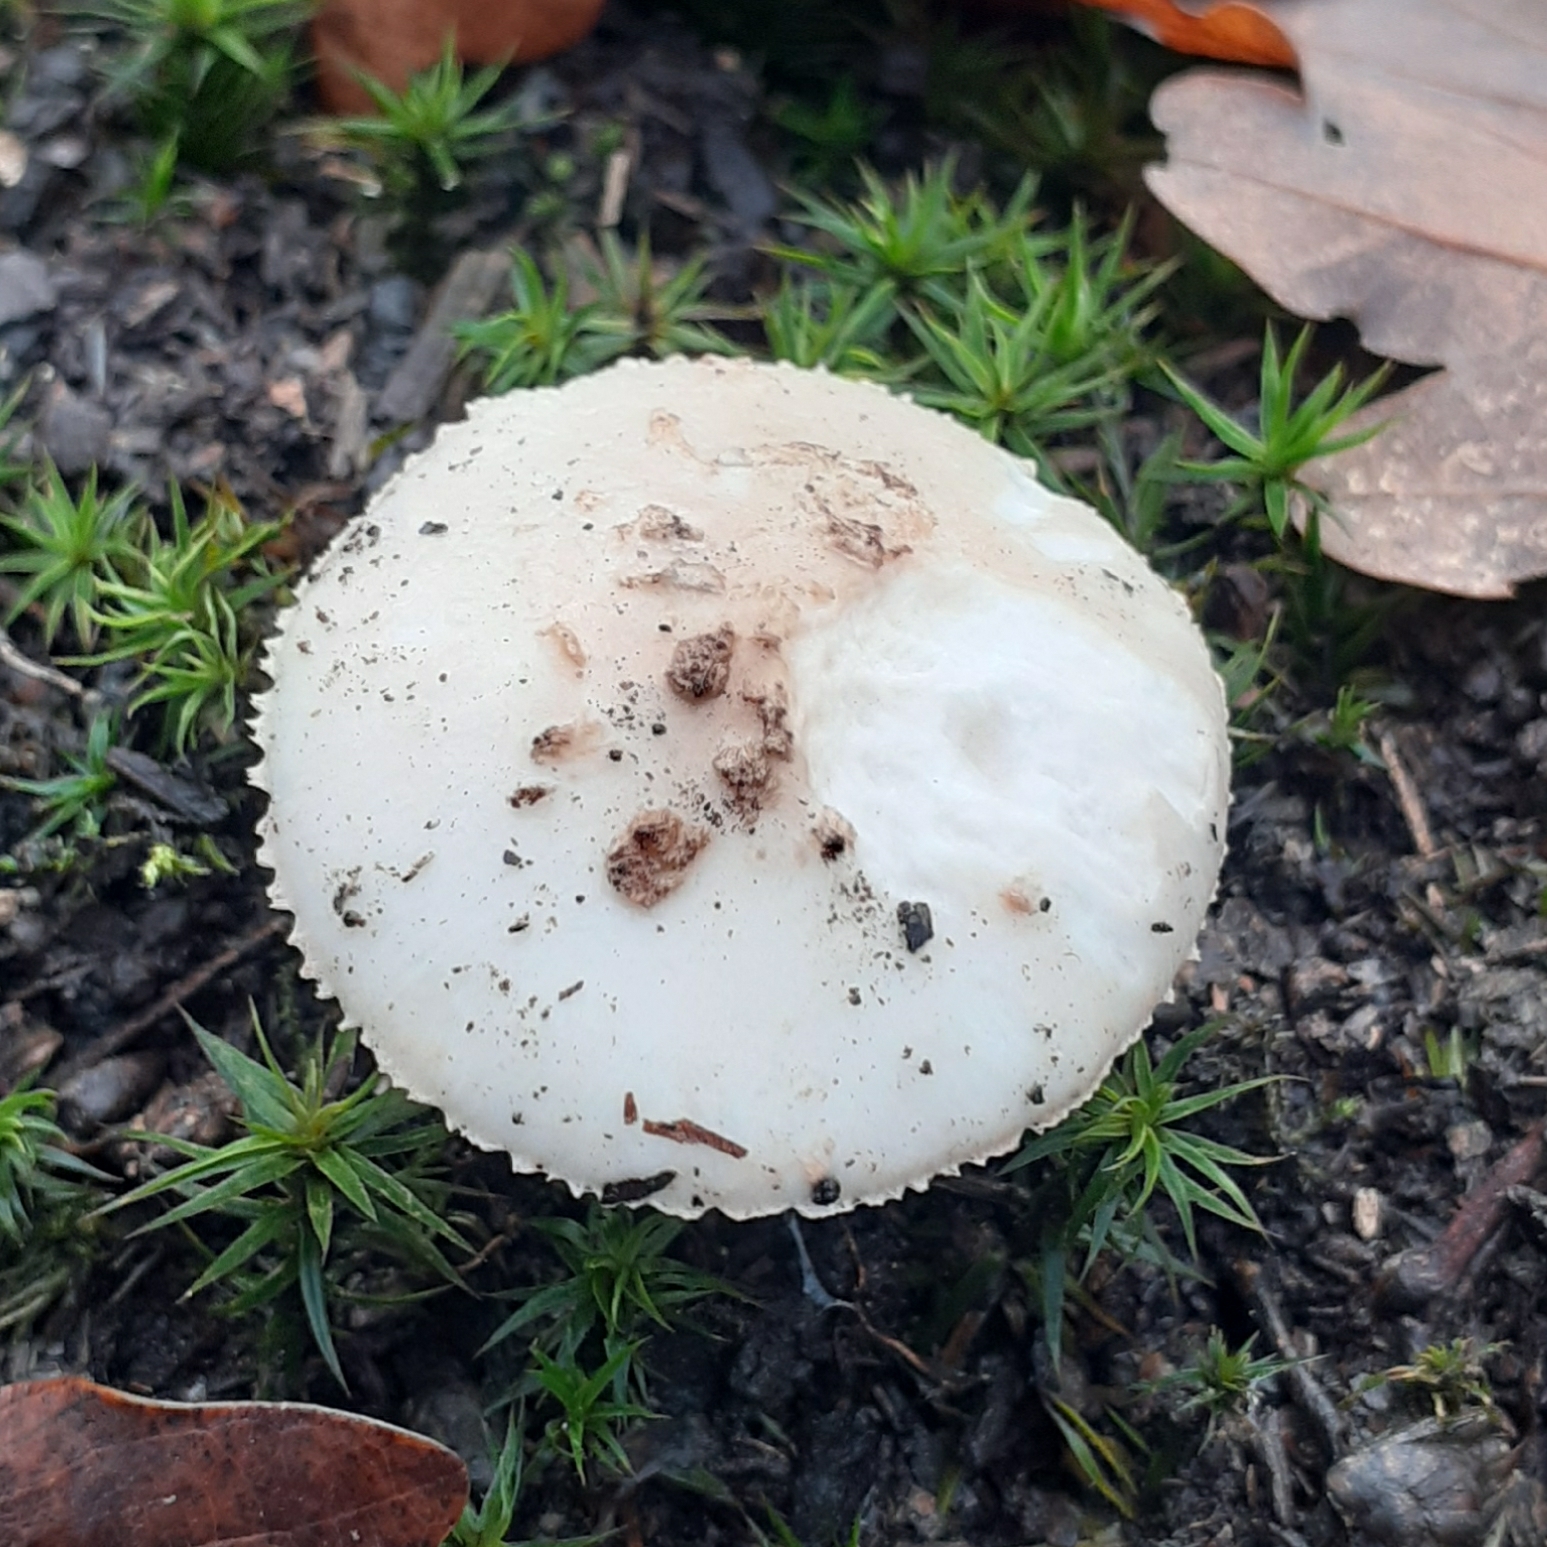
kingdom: Fungi
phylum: Basidiomycota
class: Agaricomycetes
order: Agaricales
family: Amanitaceae
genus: Amanita
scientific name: Amanita citrina
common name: False death-cap
